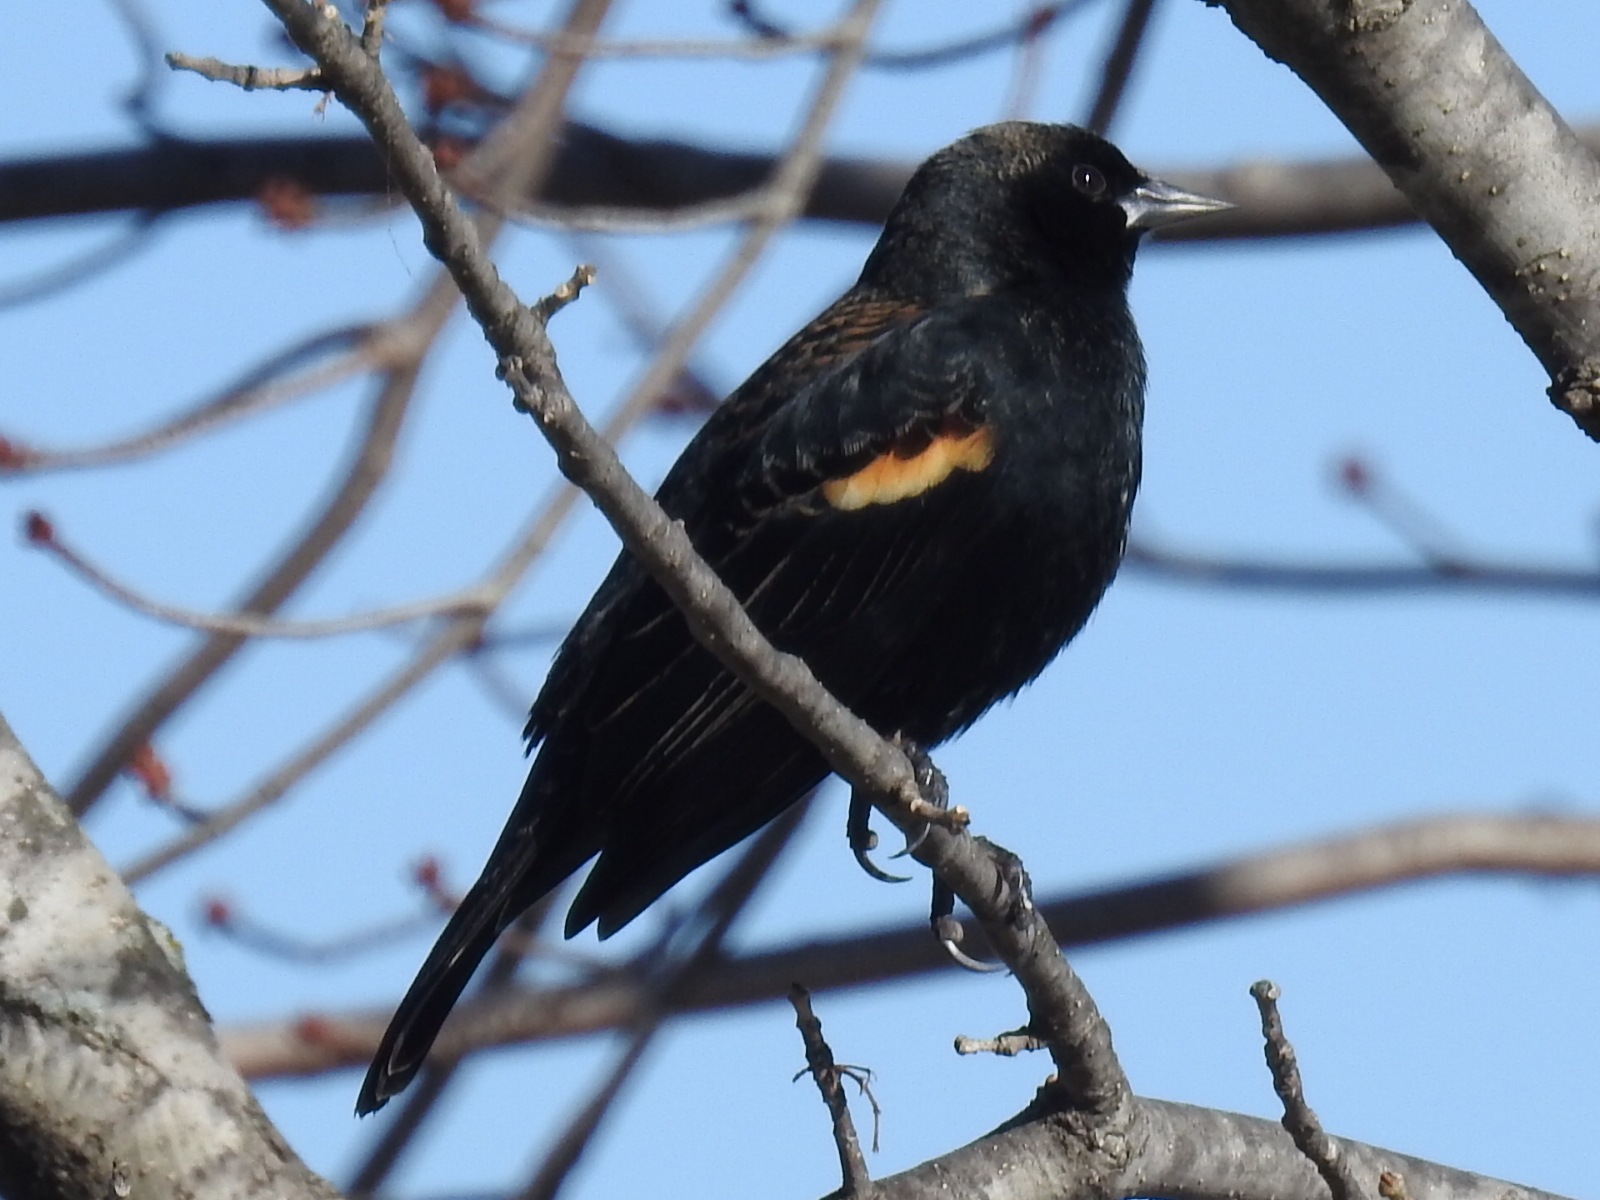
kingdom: Animalia
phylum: Chordata
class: Aves
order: Passeriformes
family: Icteridae
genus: Agelaius
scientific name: Agelaius phoeniceus
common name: Red-winged blackbird
